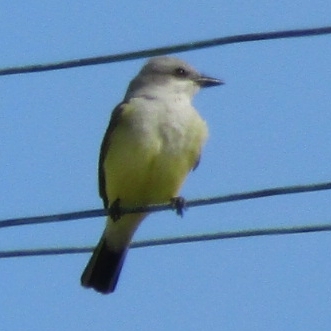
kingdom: Animalia
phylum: Chordata
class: Aves
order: Passeriformes
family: Tyrannidae
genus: Tyrannus
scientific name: Tyrannus verticalis
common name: Western kingbird
